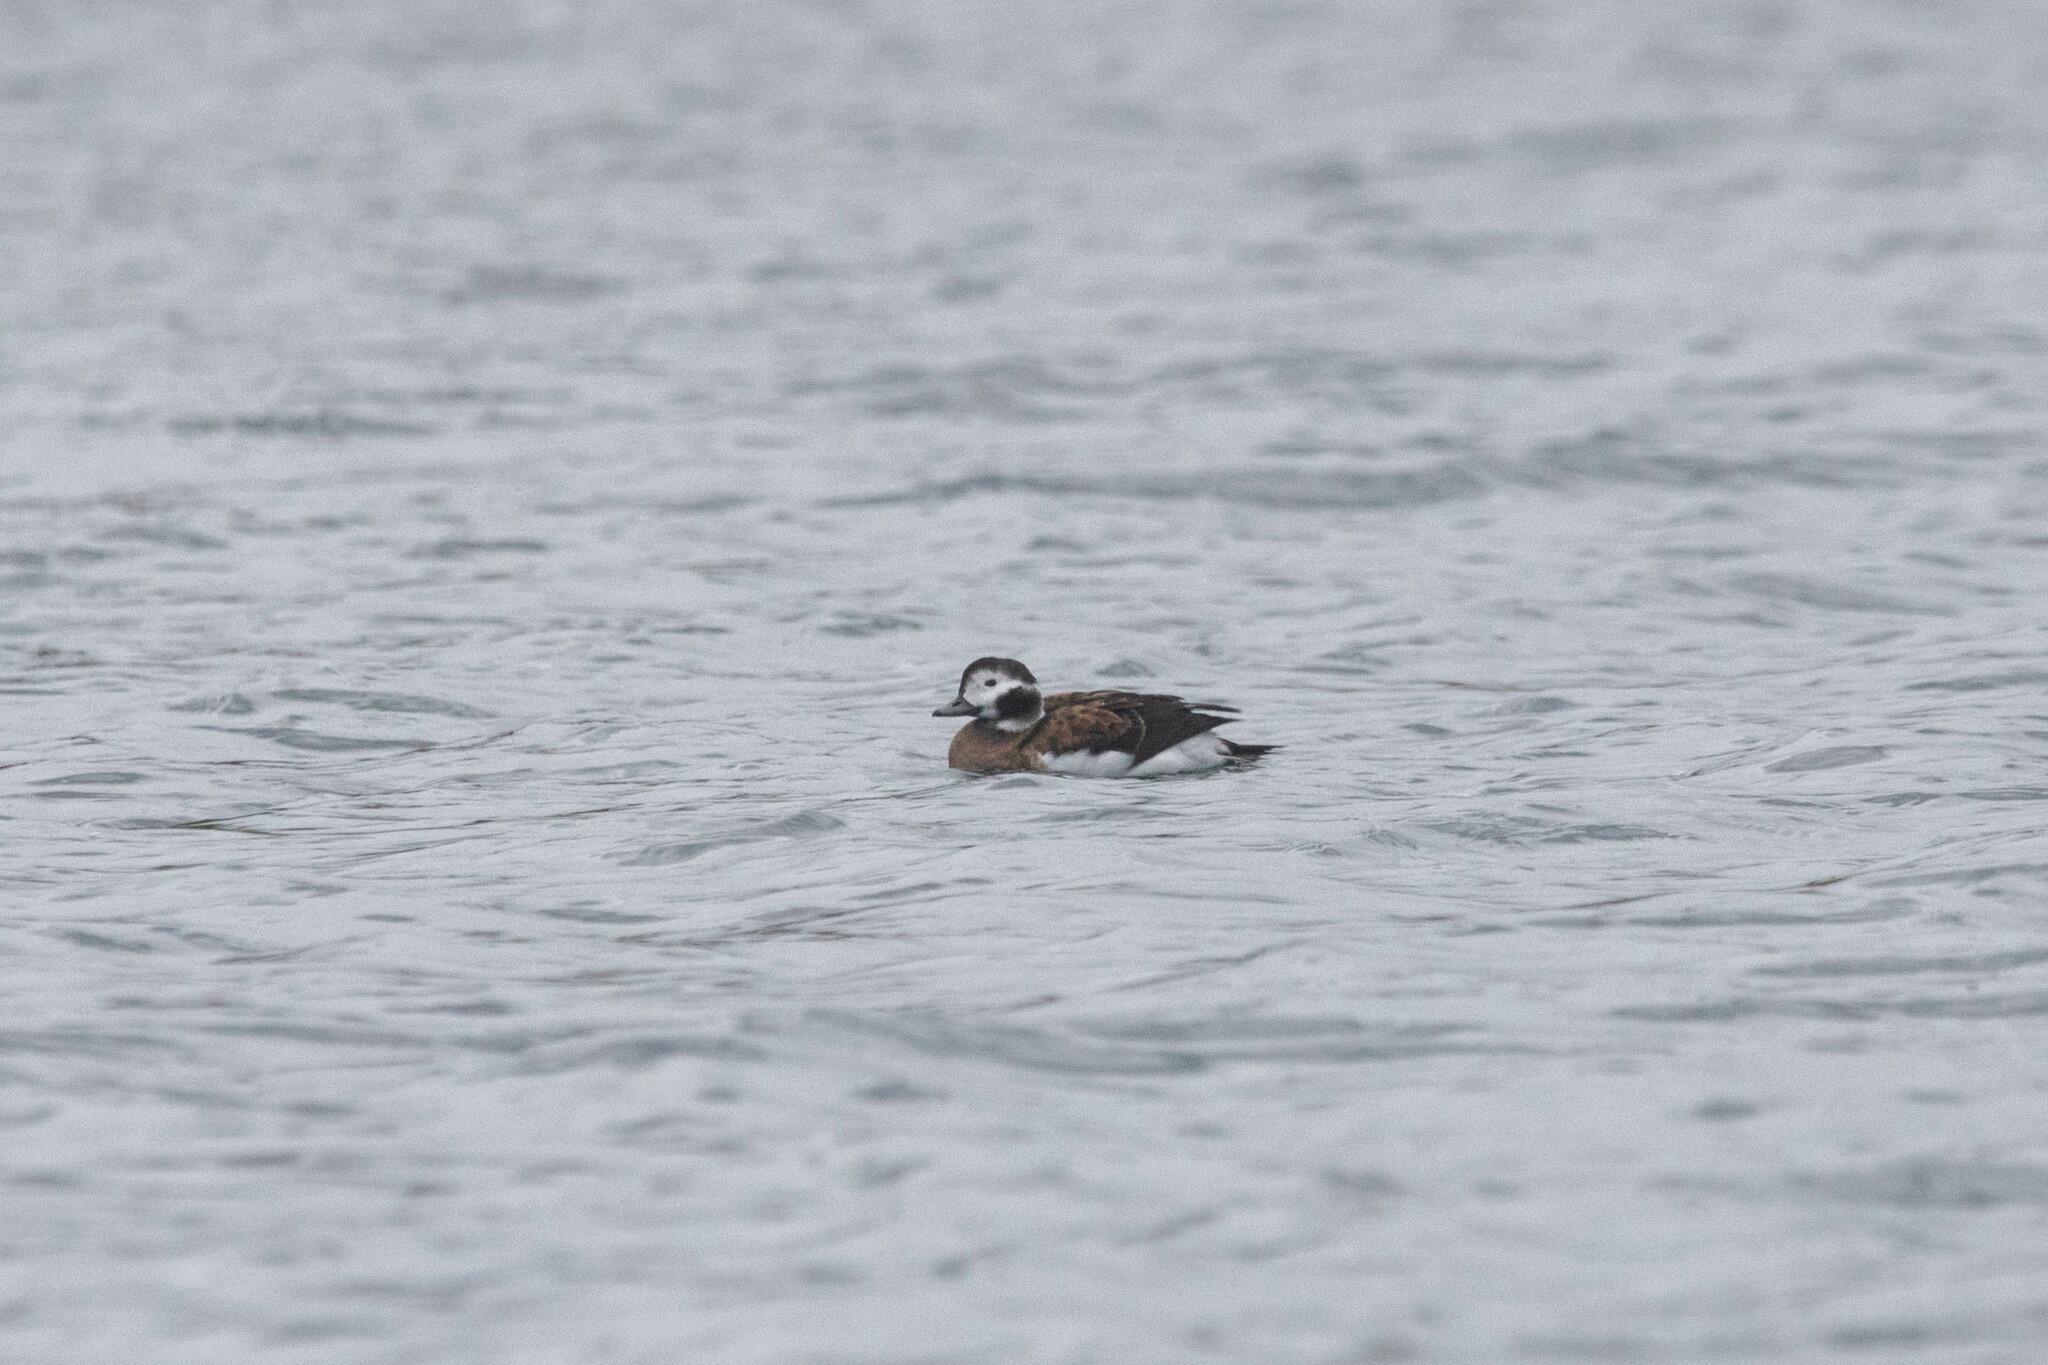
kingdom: Animalia
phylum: Chordata
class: Aves
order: Anseriformes
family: Anatidae
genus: Clangula
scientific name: Clangula hyemalis
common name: Long-tailed duck
